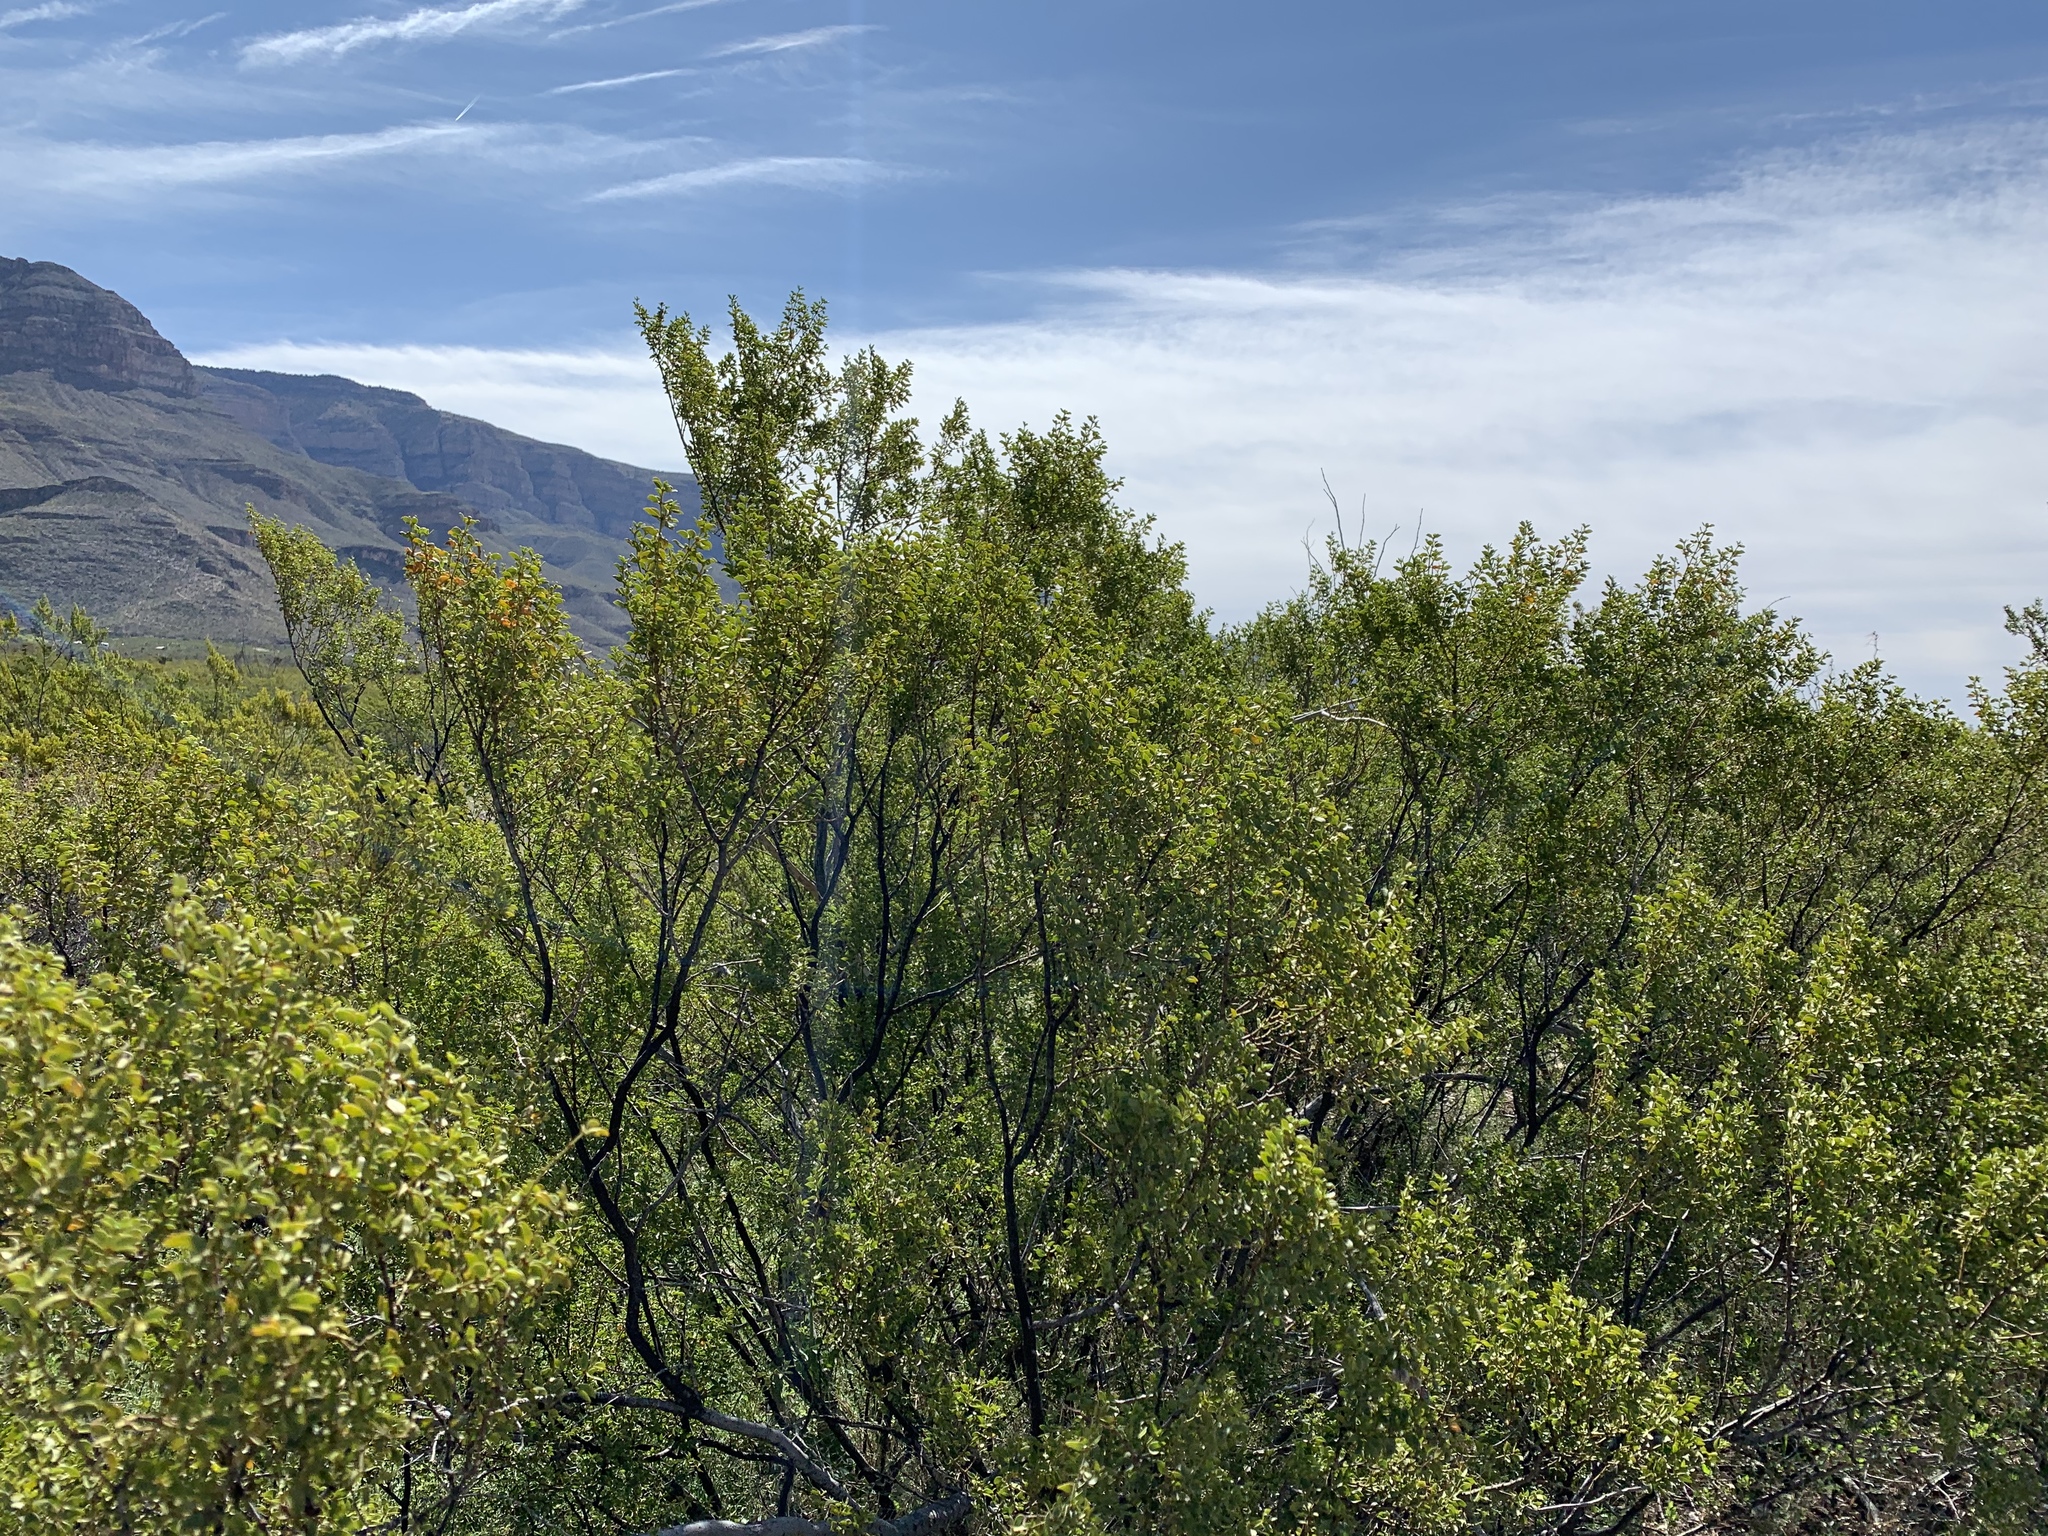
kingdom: Plantae
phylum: Tracheophyta
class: Magnoliopsida
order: Zygophyllales
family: Zygophyllaceae
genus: Larrea
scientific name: Larrea tridentata
